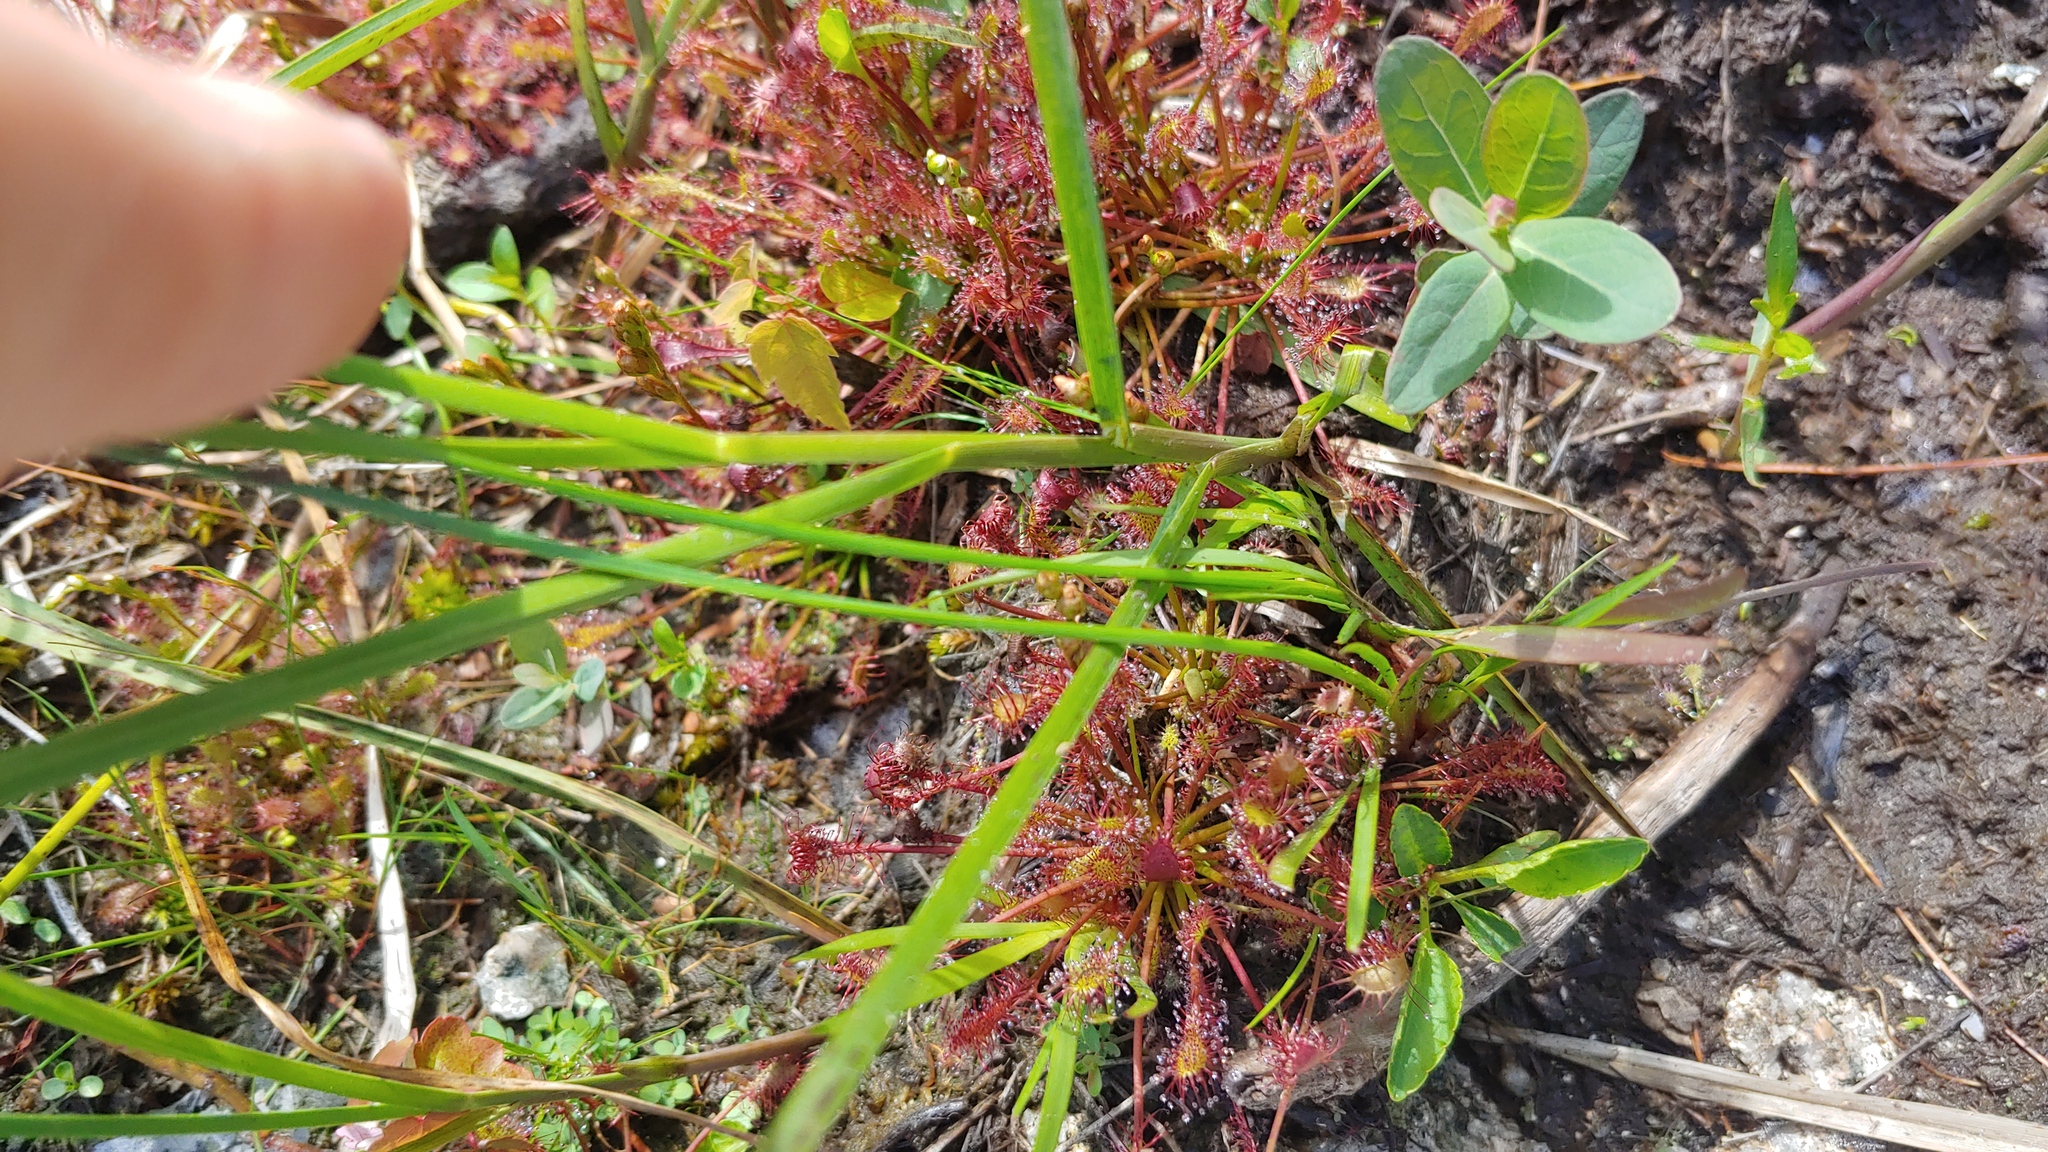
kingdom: Plantae
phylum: Tracheophyta
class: Magnoliopsida
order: Caryophyllales
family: Droseraceae
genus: Drosera
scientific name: Drosera intermedia
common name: Oblong-leaved sundew
